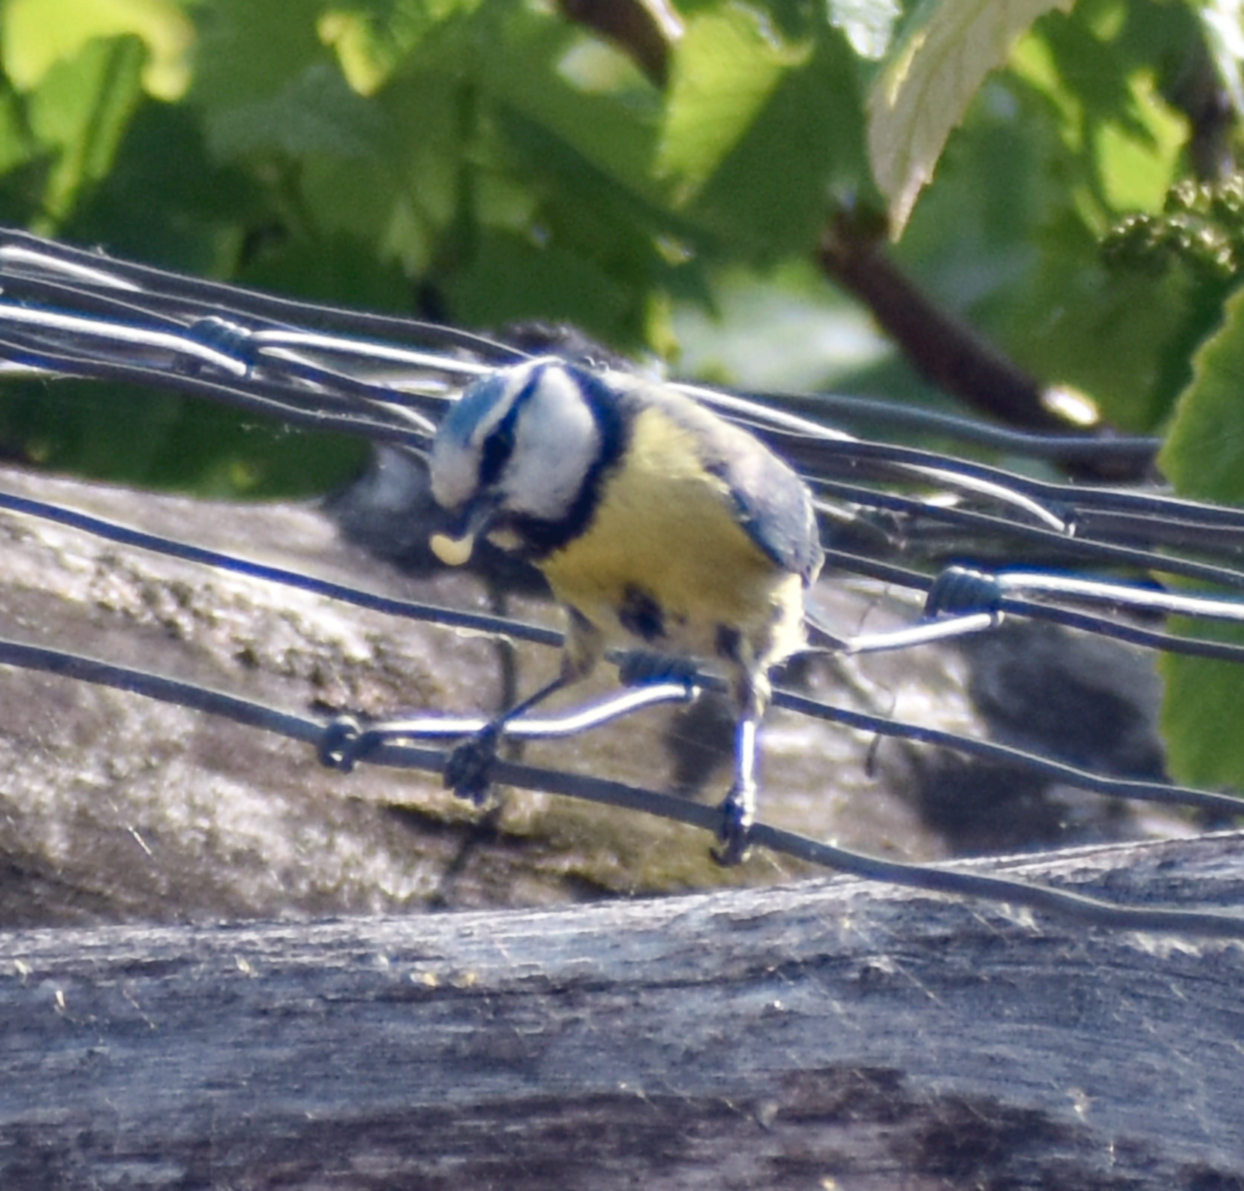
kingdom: Animalia
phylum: Chordata
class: Aves
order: Passeriformes
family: Paridae
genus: Cyanistes
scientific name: Cyanistes caeruleus
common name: Eurasian blue tit
